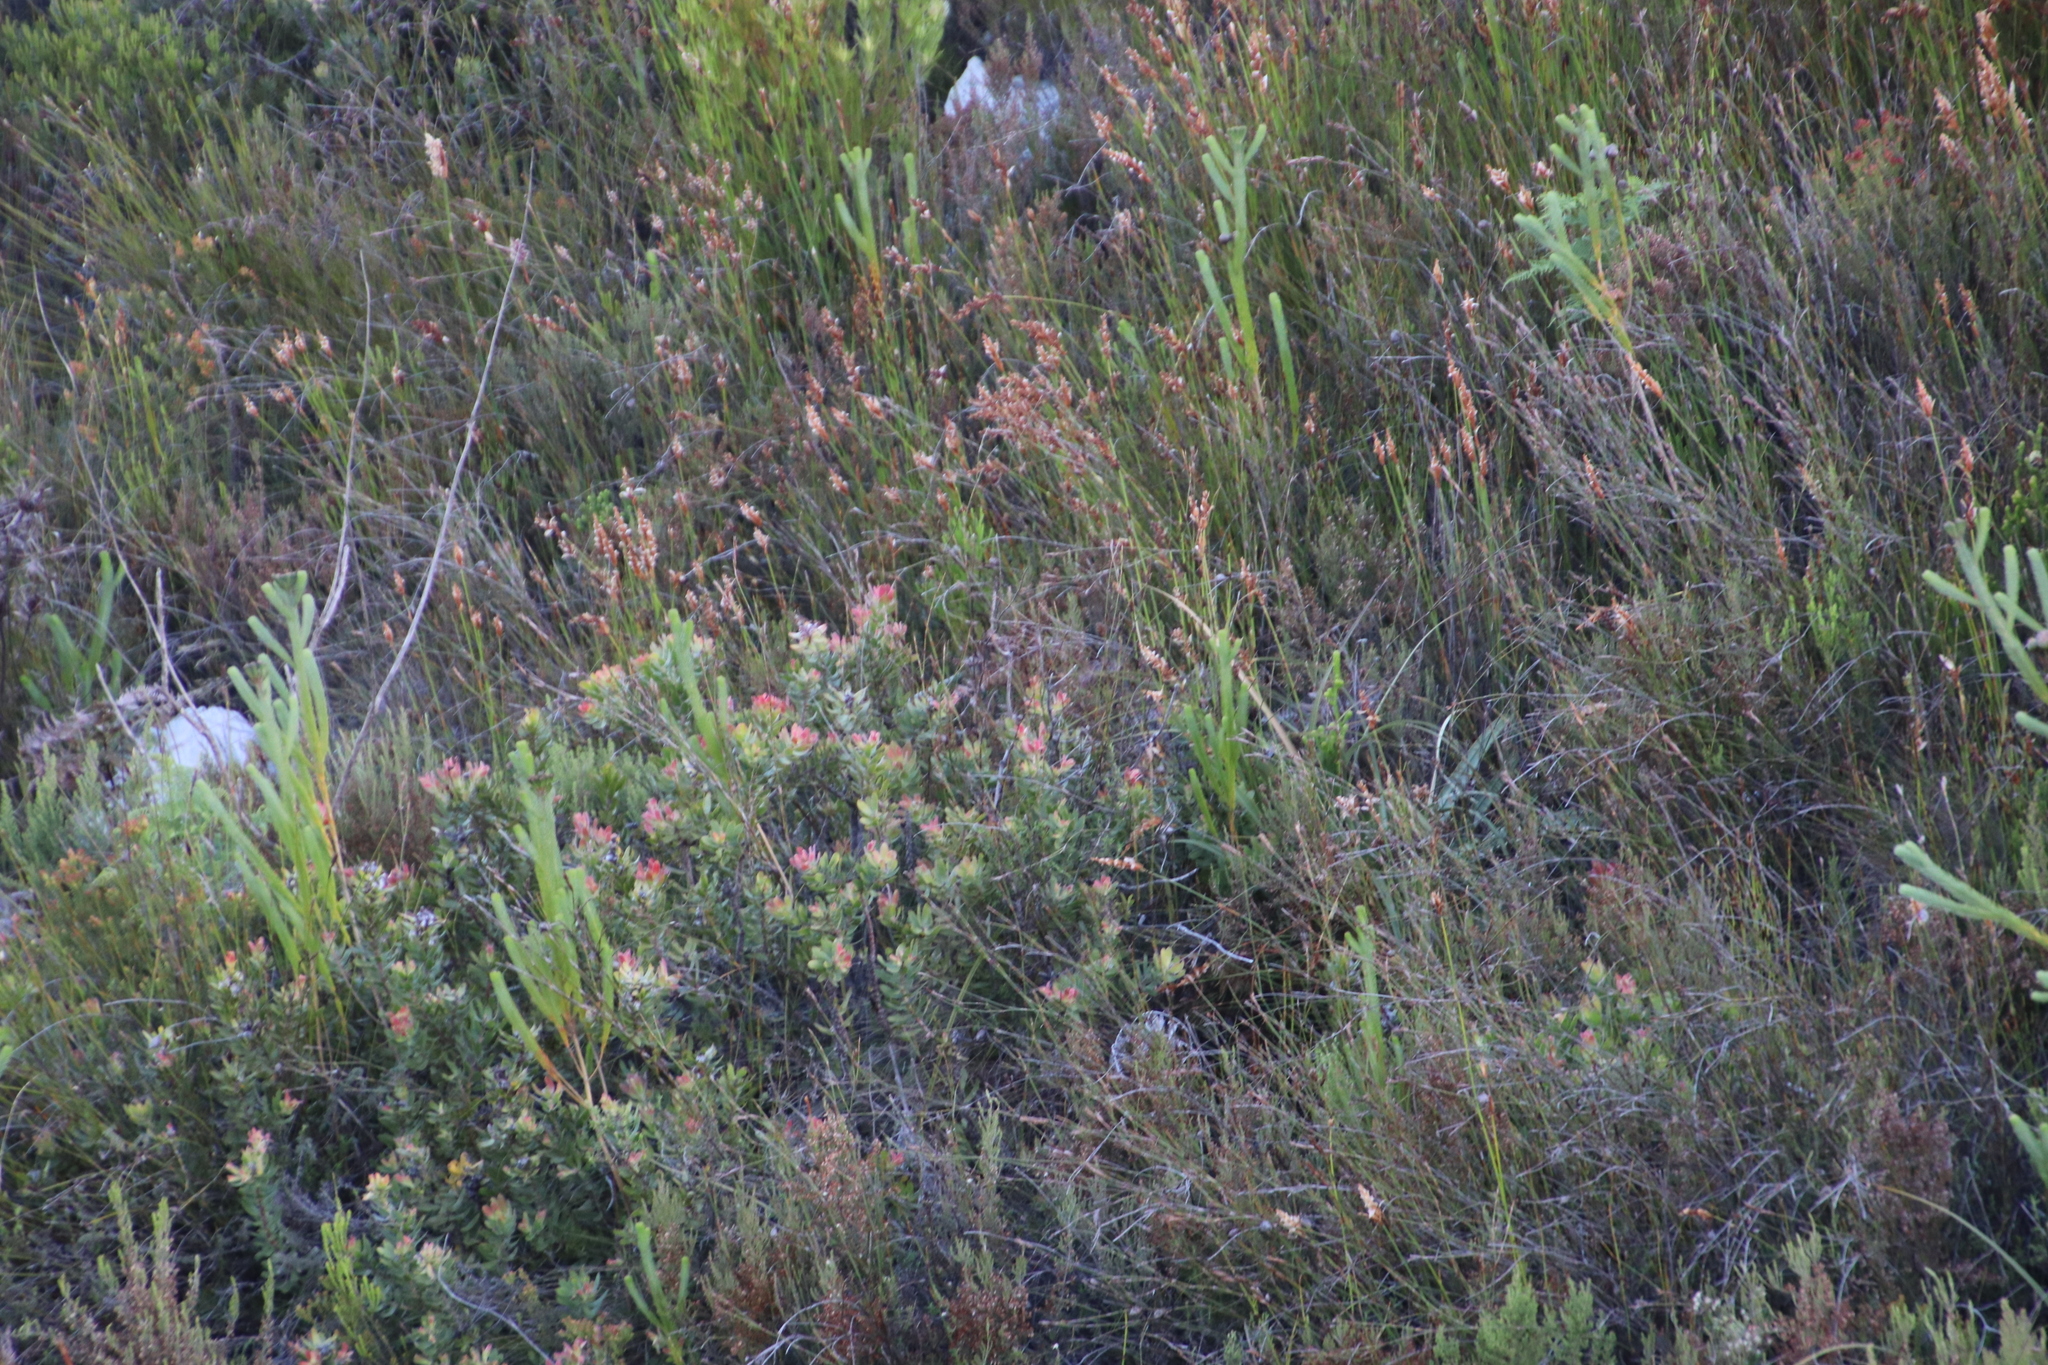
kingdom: Plantae
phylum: Tracheophyta
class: Magnoliopsida
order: Proteales
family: Proteaceae
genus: Mimetes
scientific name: Mimetes cucullatus
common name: Common pagoda
